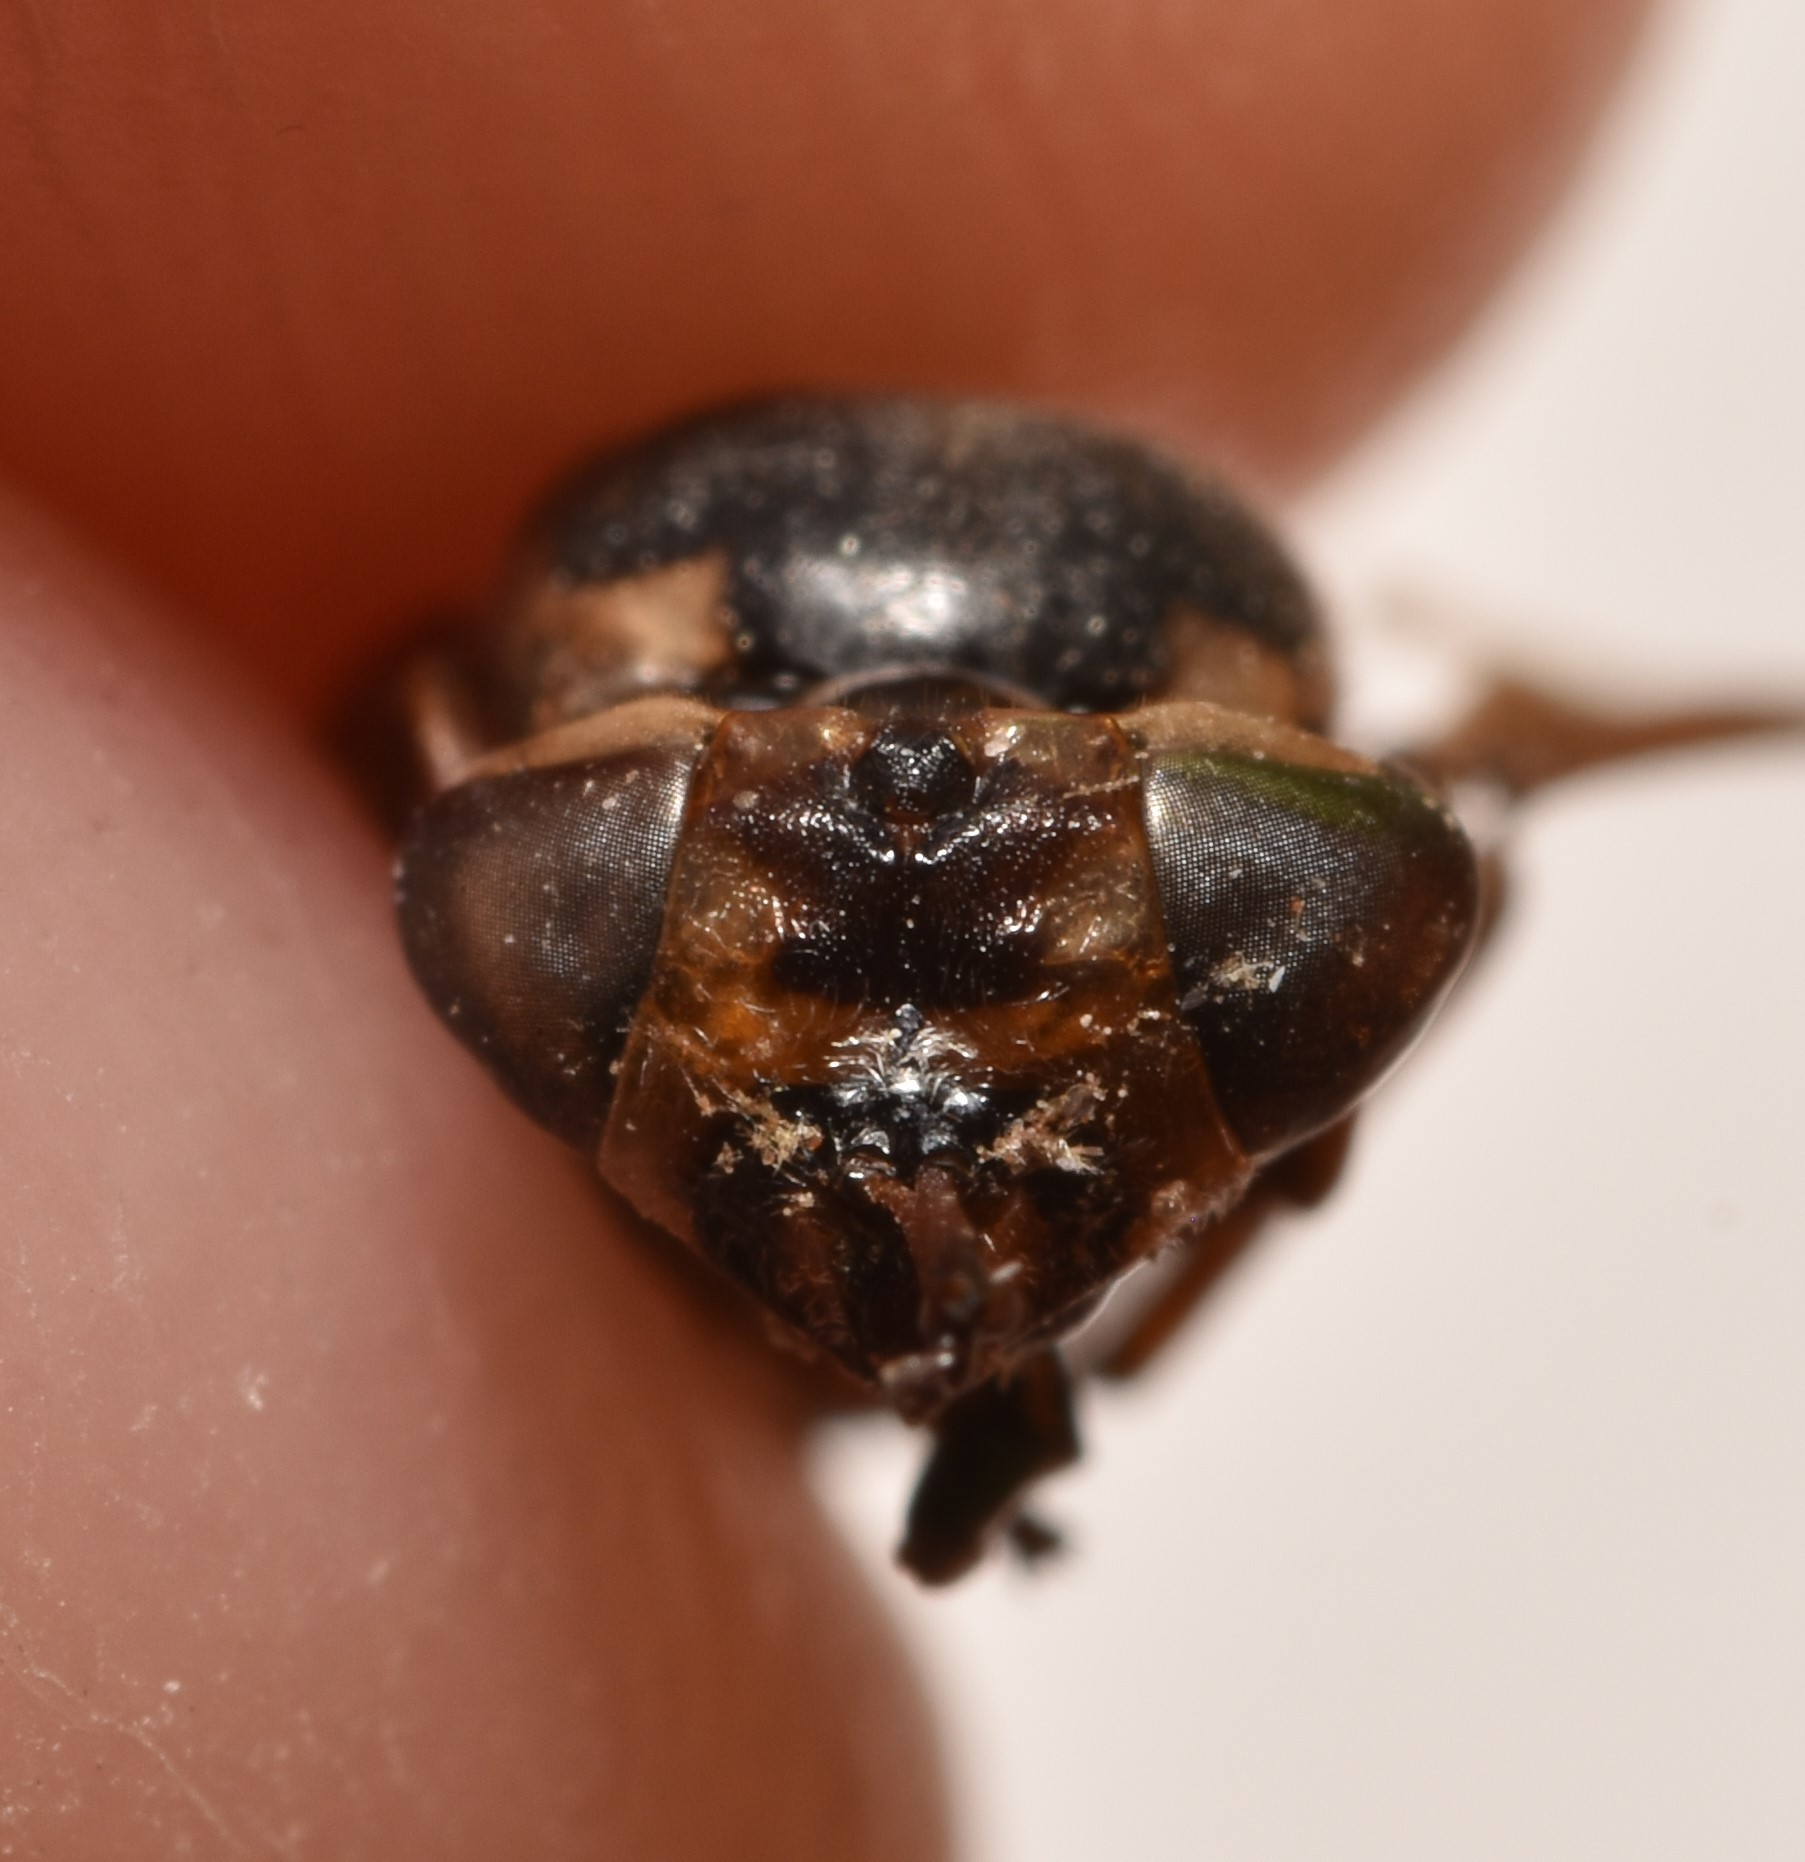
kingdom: Animalia
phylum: Arthropoda
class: Insecta
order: Diptera
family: Stratiomyidae
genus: Hoplitimyia
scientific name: Hoplitimyia constans
